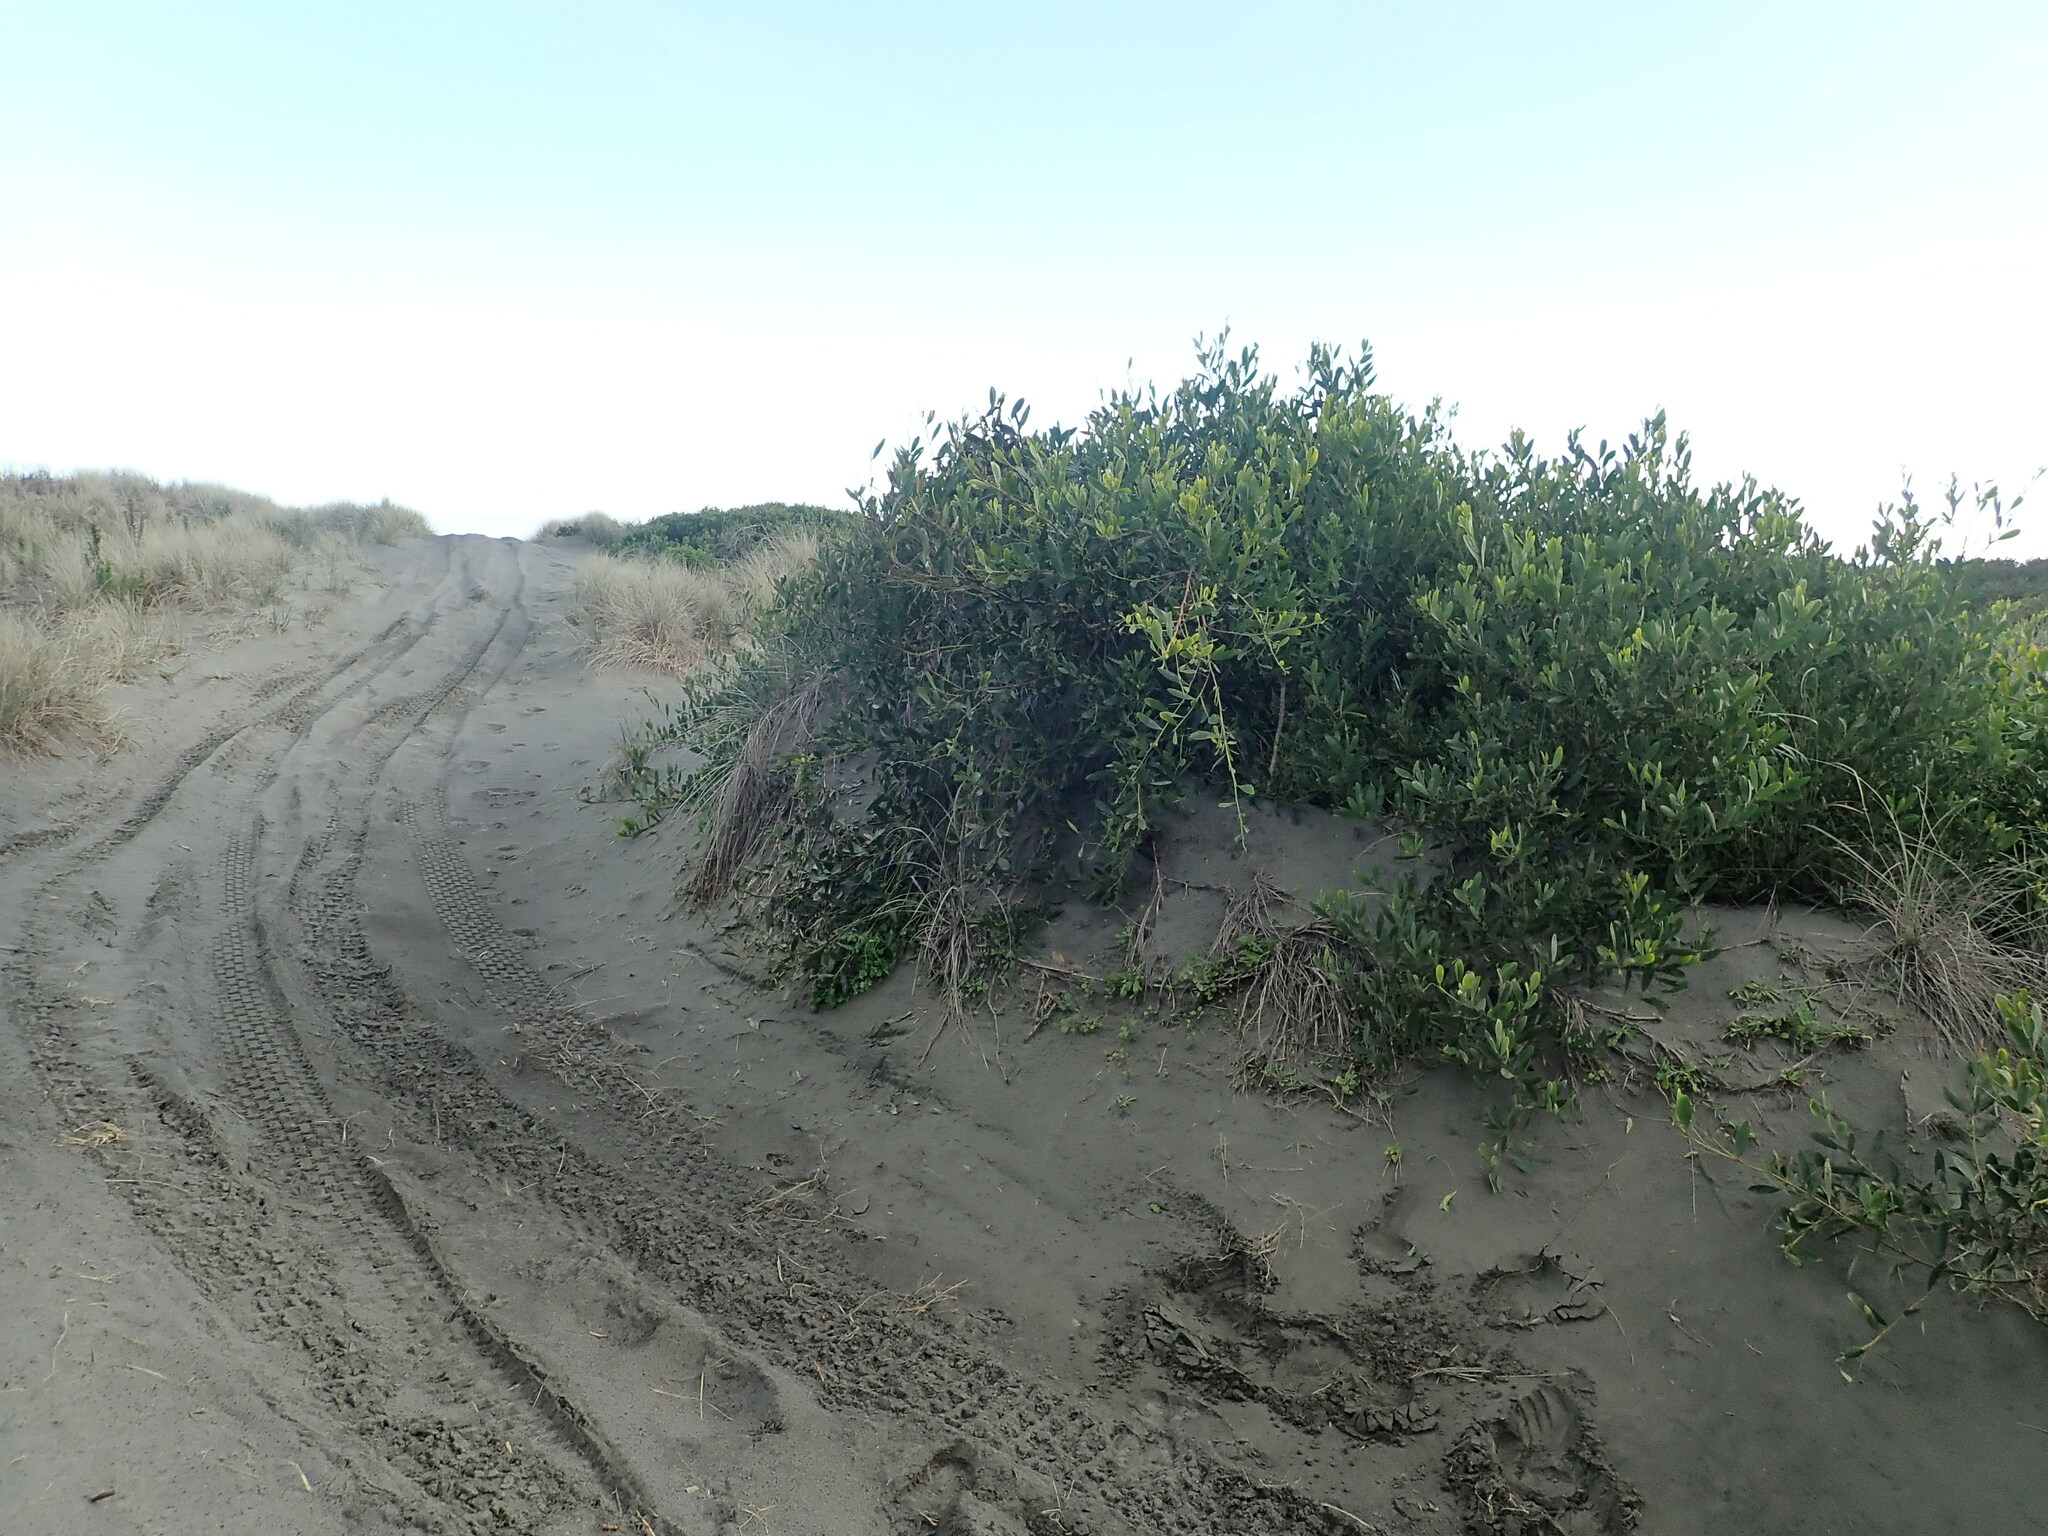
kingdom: Plantae
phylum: Tracheophyta
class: Magnoliopsida
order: Fabales
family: Fabaceae
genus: Acacia
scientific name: Acacia longifolia
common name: Sydney golden wattle
